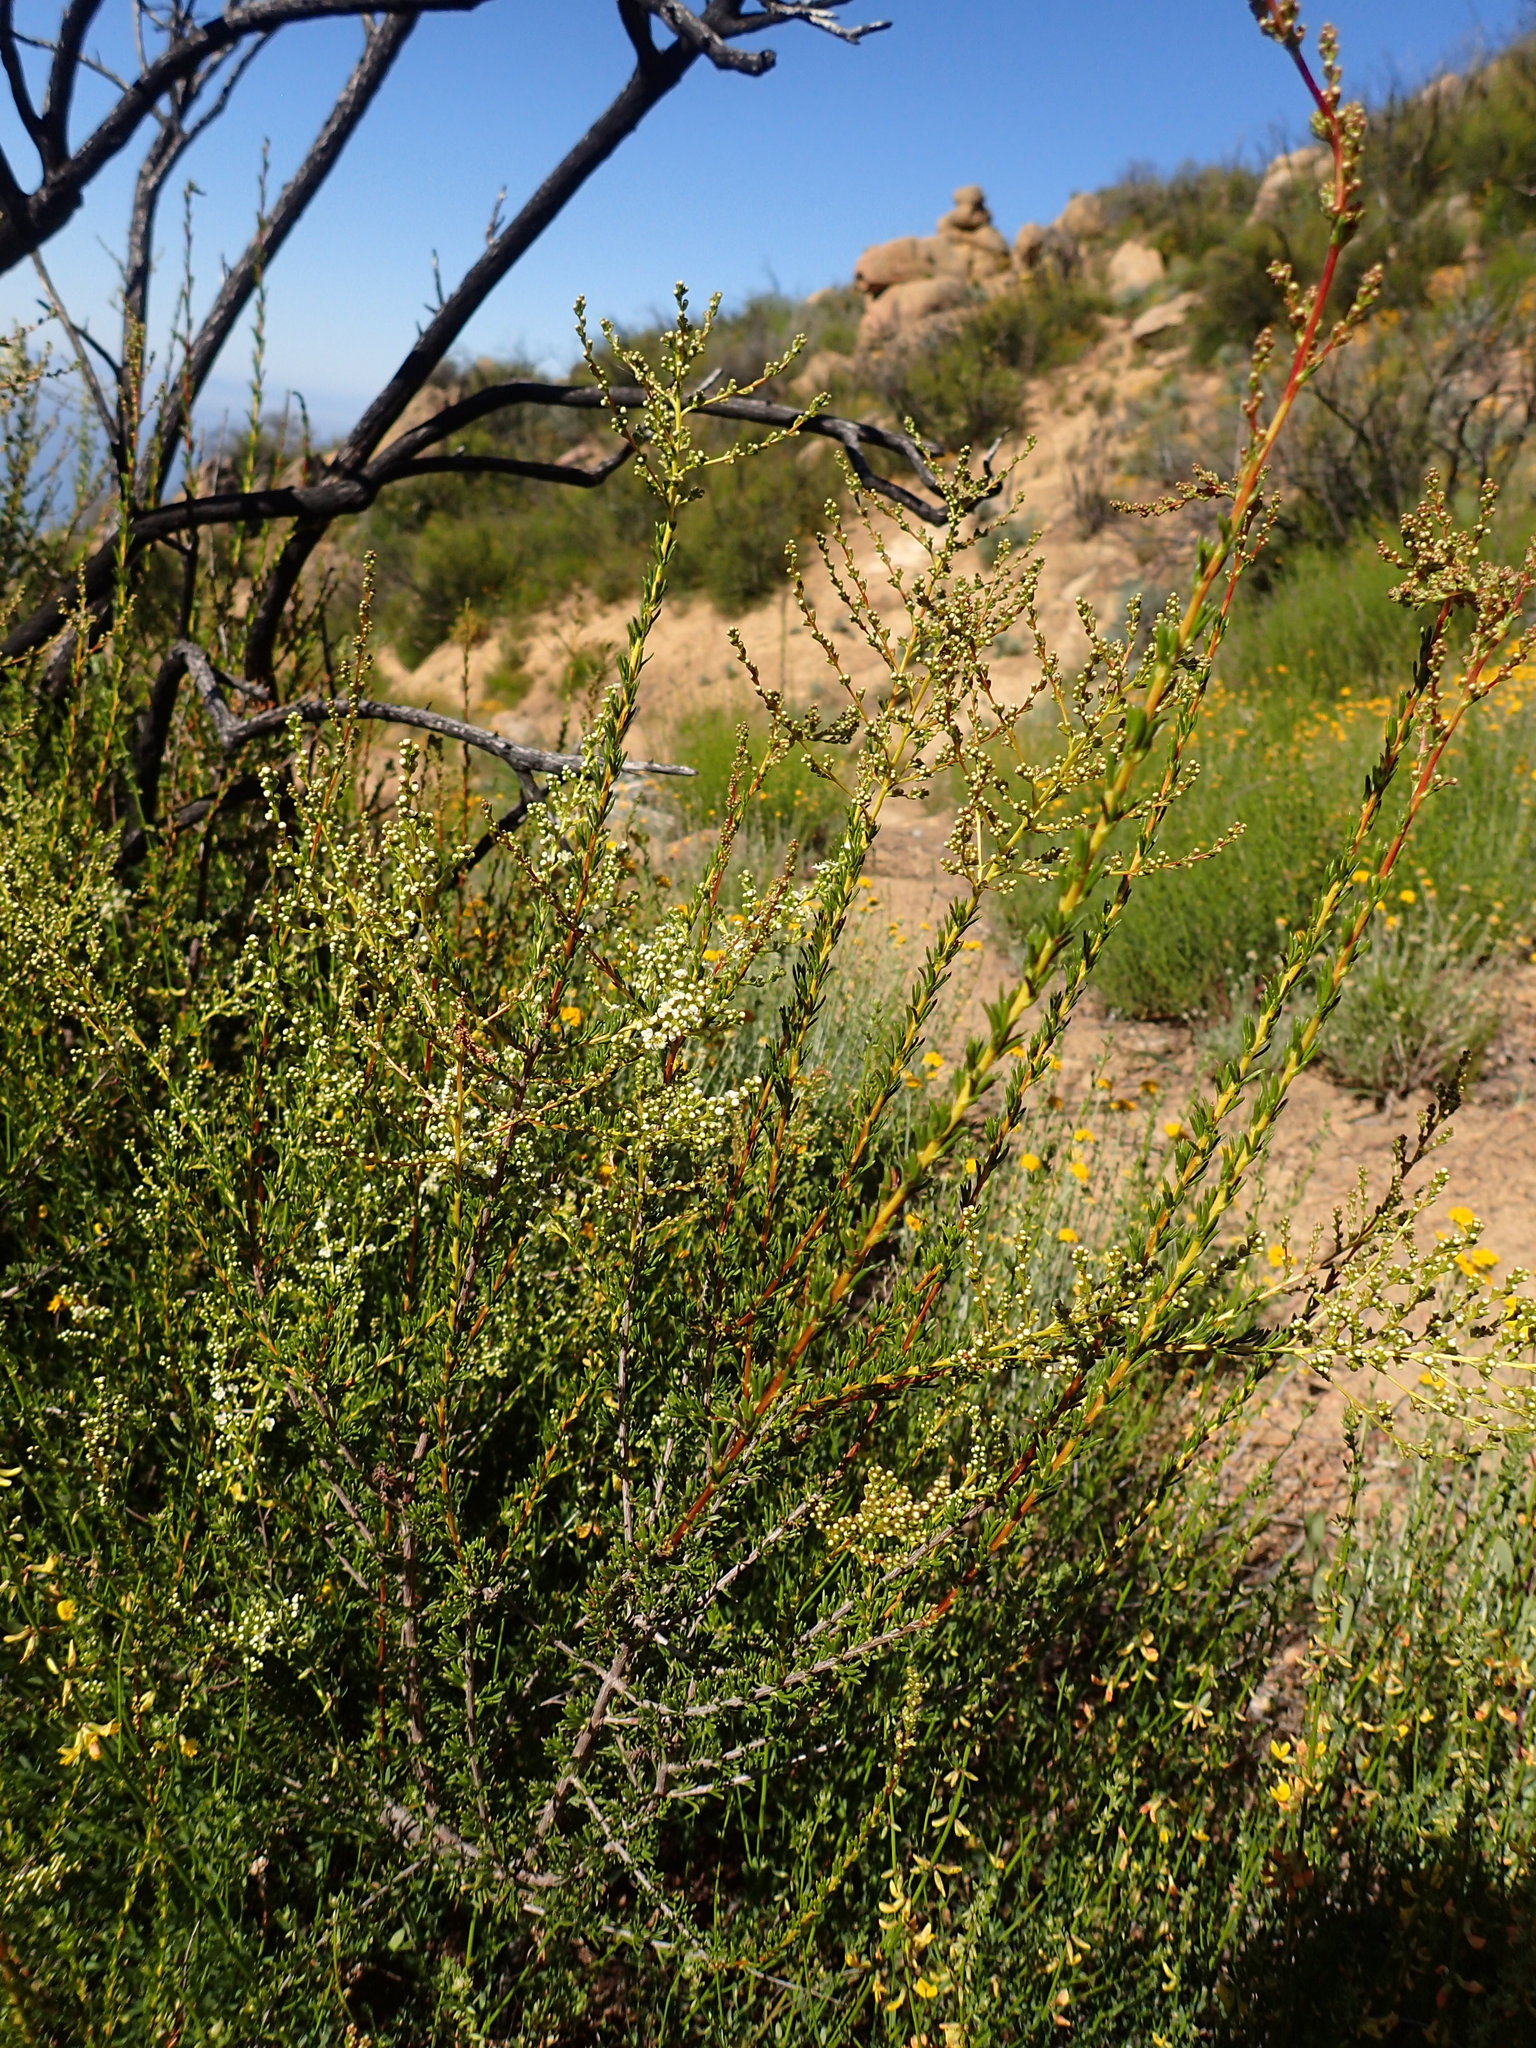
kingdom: Plantae
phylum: Tracheophyta
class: Magnoliopsida
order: Rosales
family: Rosaceae
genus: Adenostoma
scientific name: Adenostoma fasciculatum
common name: Chamise
